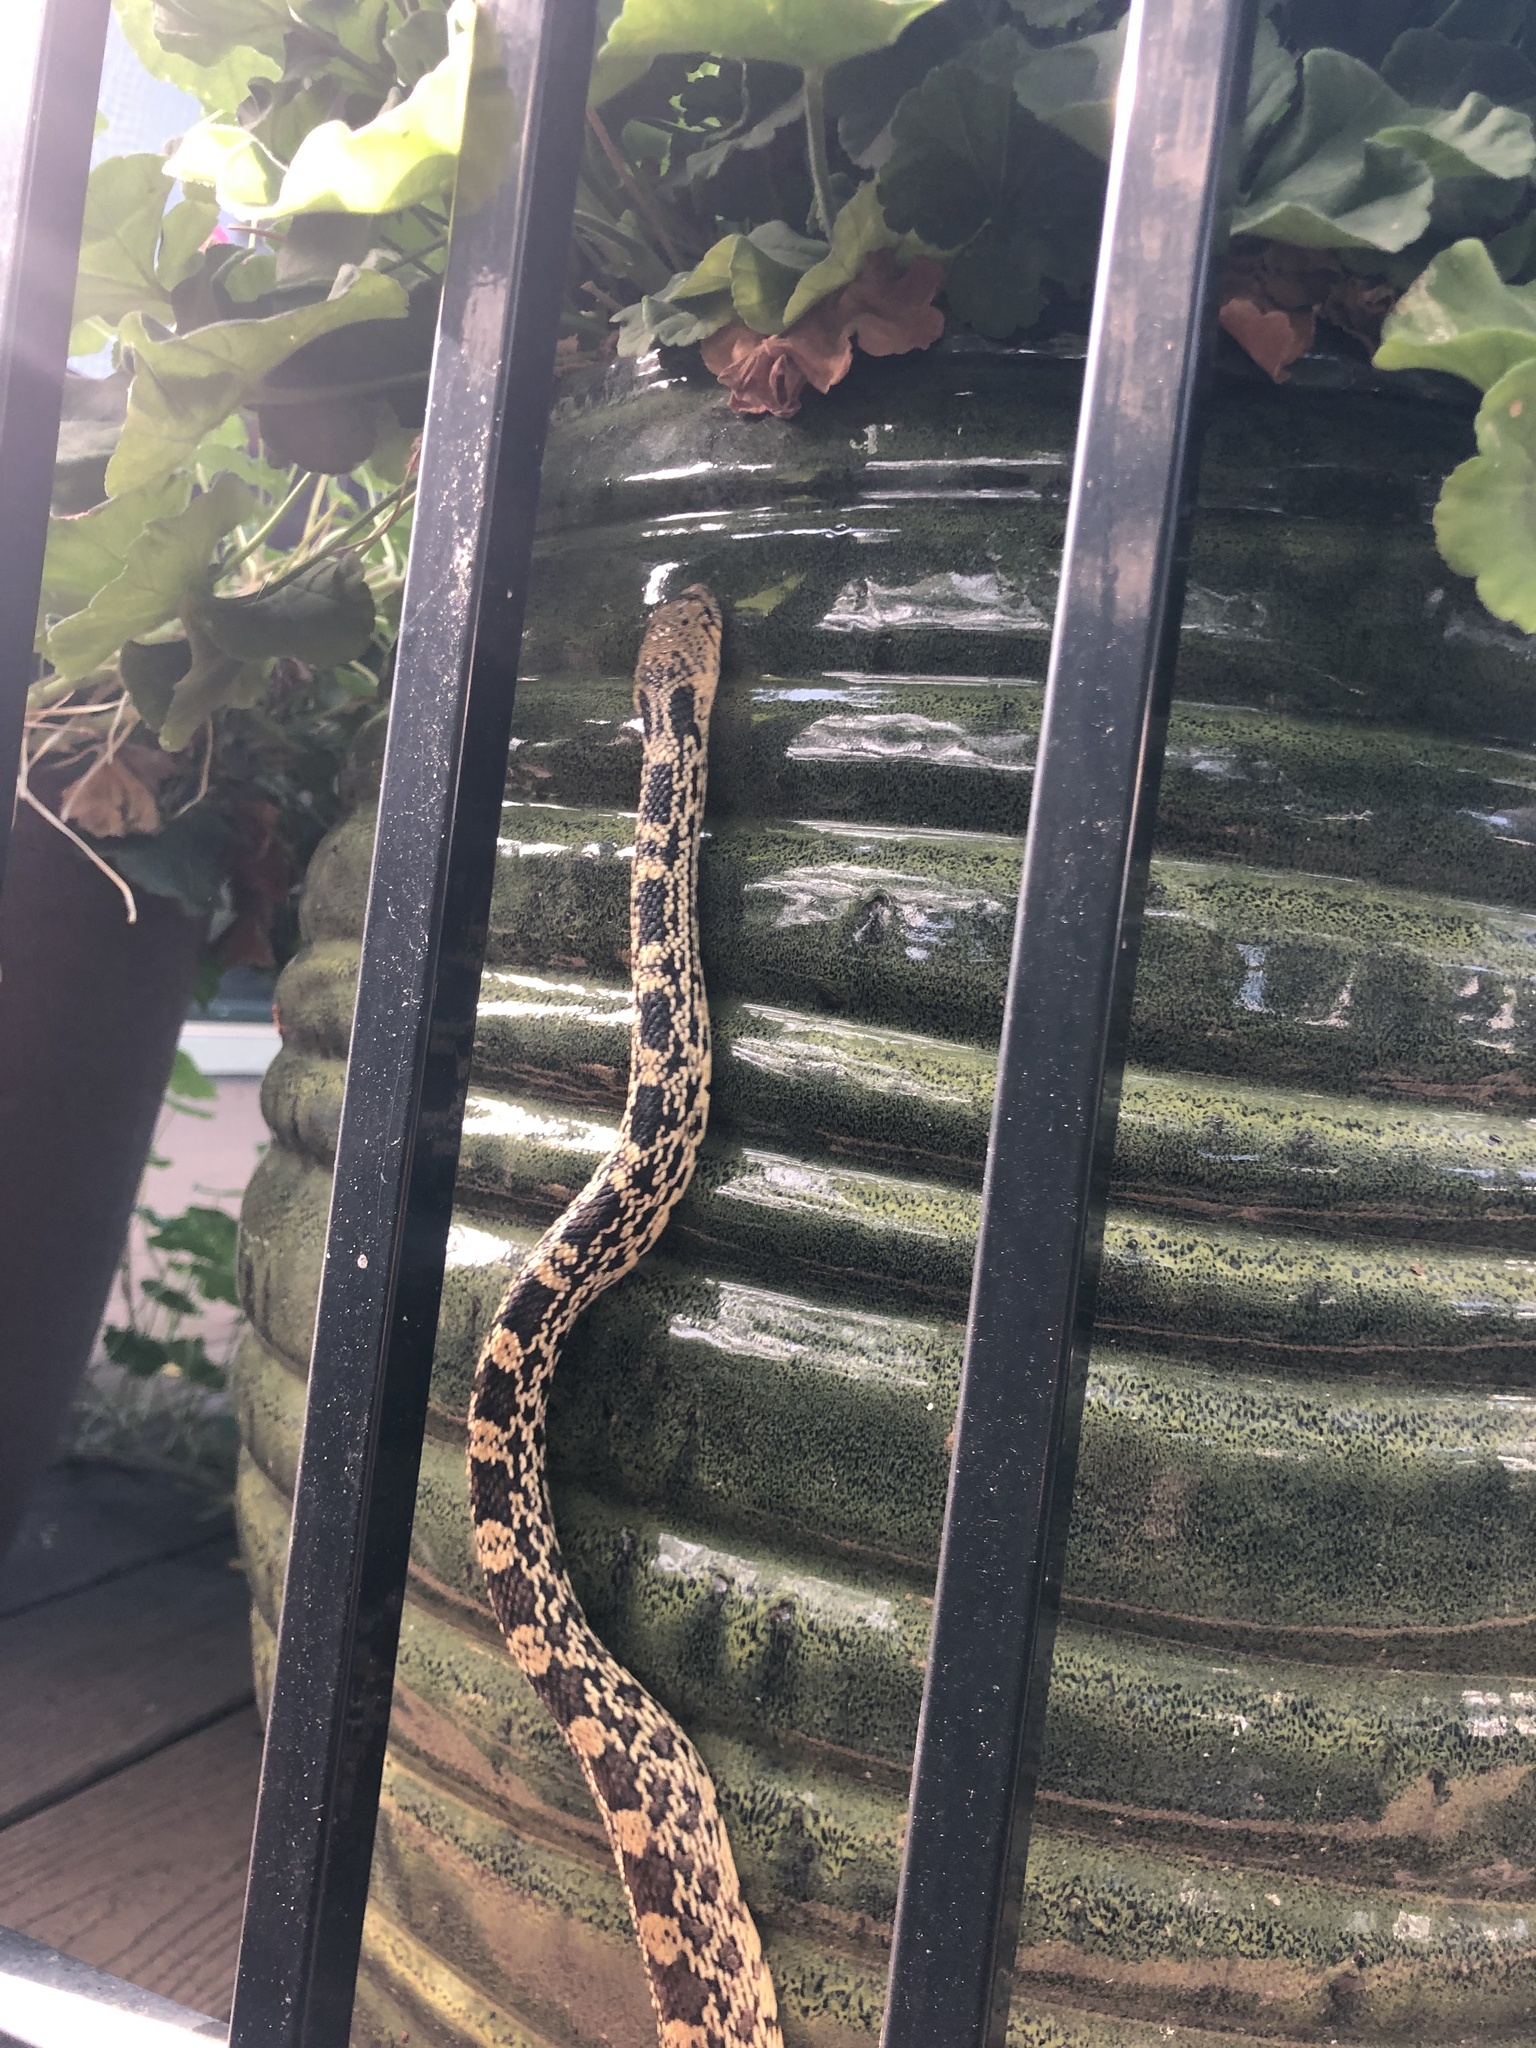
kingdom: Animalia
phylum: Chordata
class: Squamata
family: Colubridae
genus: Pituophis
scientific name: Pituophis catenifer
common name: Gopher snake
